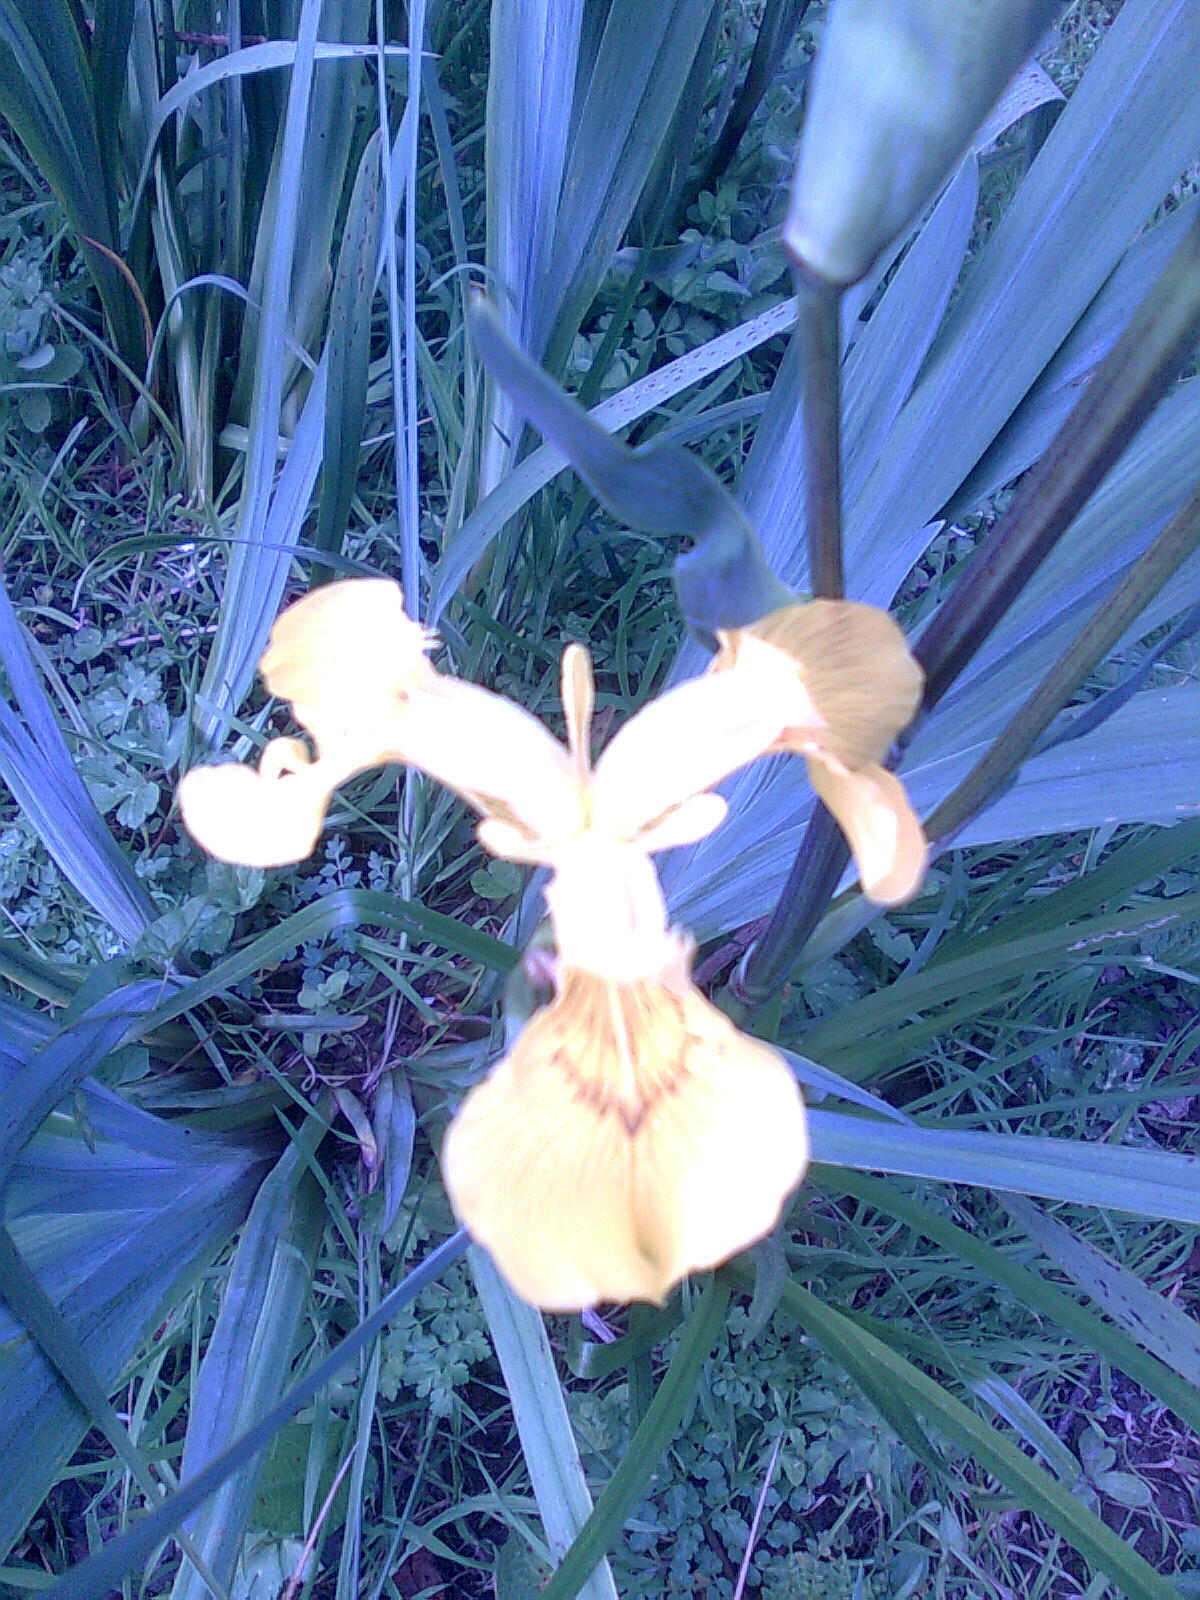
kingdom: Plantae
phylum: Tracheophyta
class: Liliopsida
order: Asparagales
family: Iridaceae
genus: Iris
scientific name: Iris pseudacorus
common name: Yellow flag
